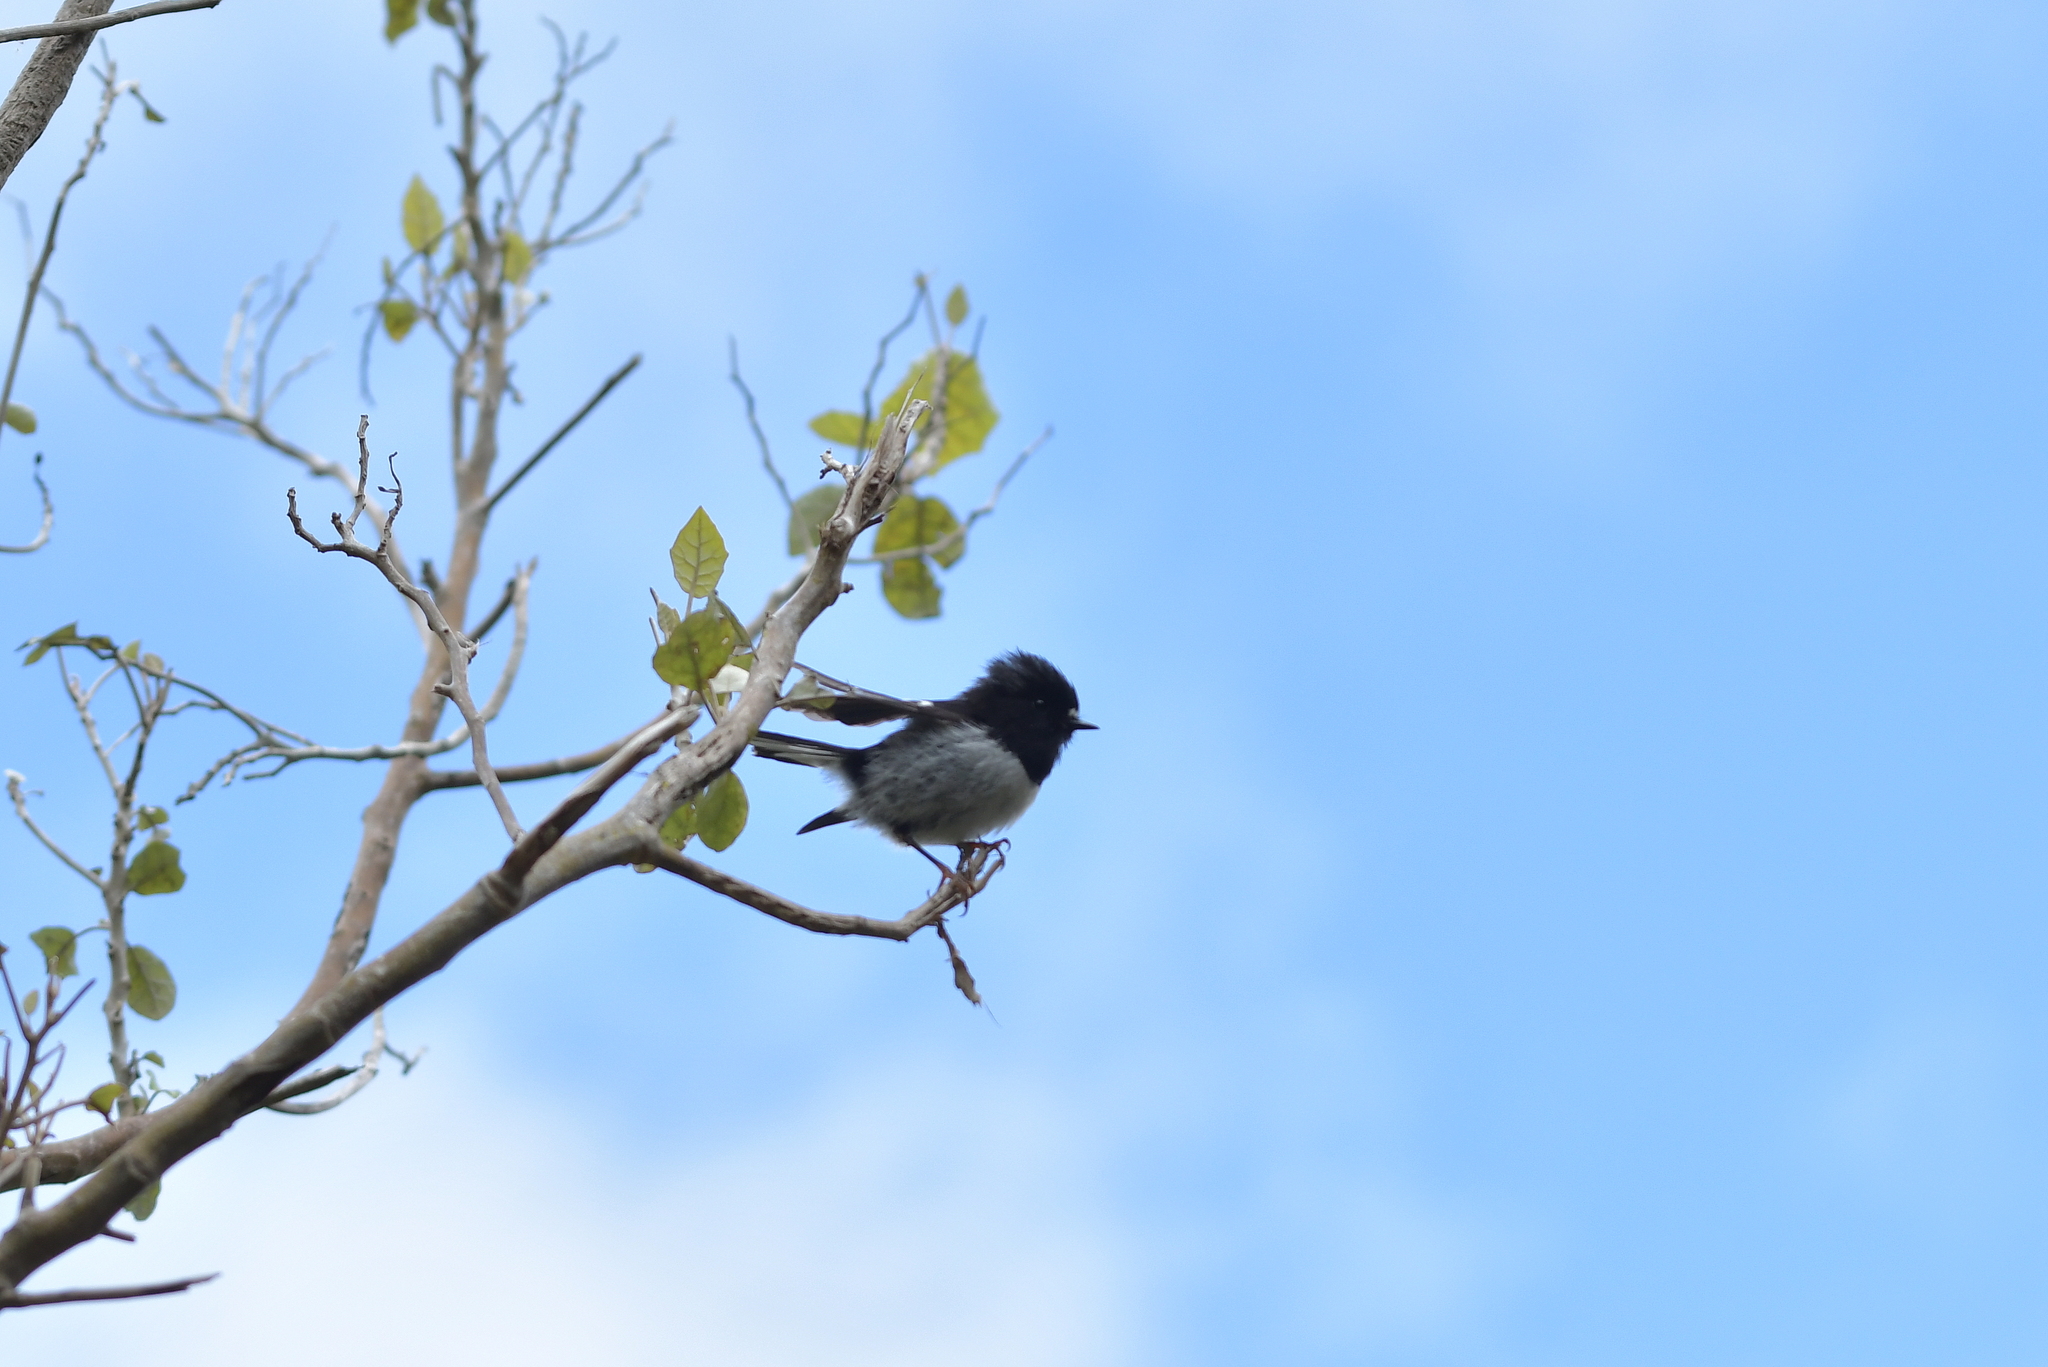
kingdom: Animalia
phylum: Chordata
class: Aves
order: Passeriformes
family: Petroicidae
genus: Petroica
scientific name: Petroica macrocephala
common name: Tomtit
